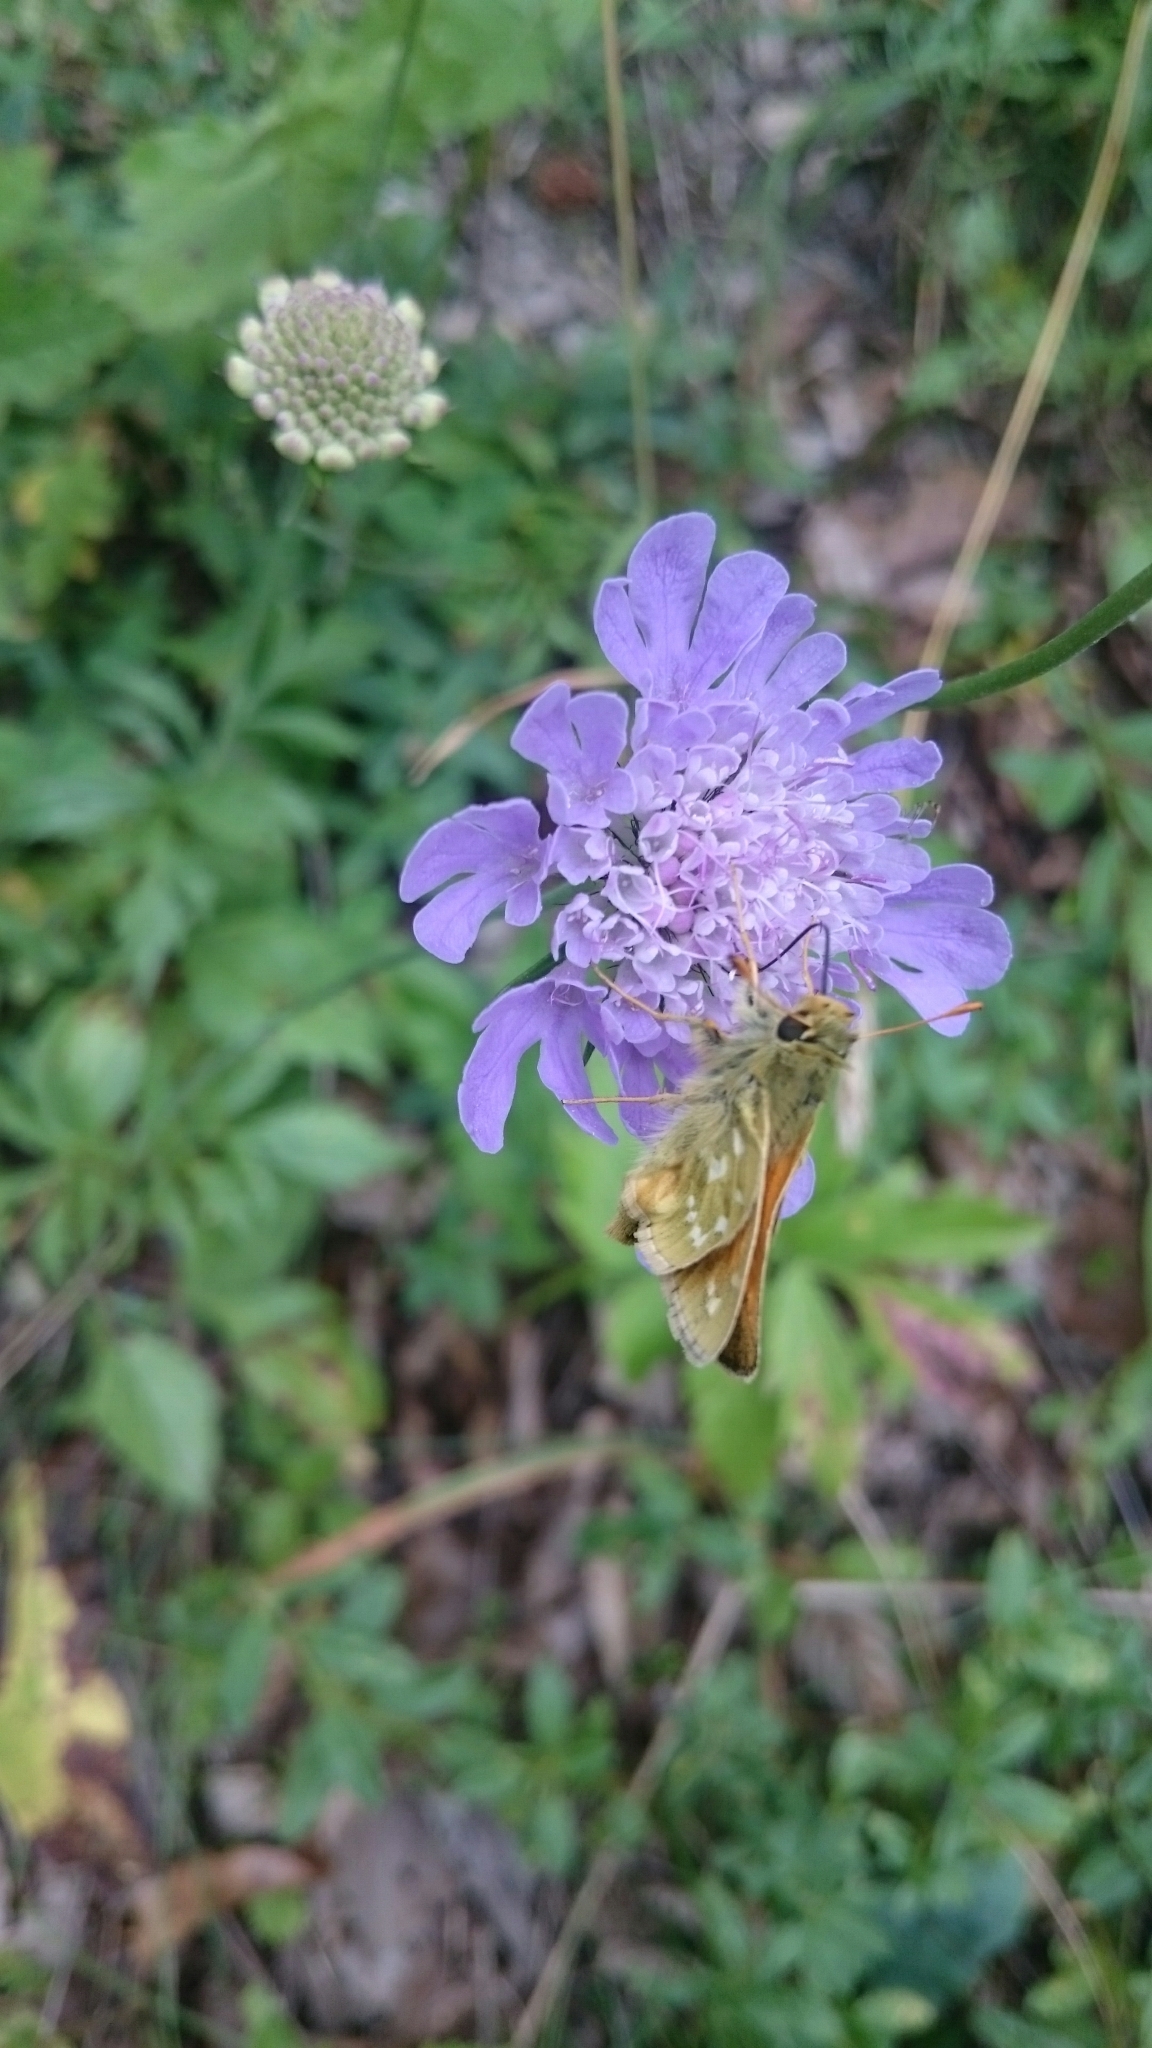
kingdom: Animalia
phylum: Arthropoda
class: Insecta
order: Lepidoptera
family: Hesperiidae
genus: Hesperia
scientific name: Hesperia comma
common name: Common branded skipper
